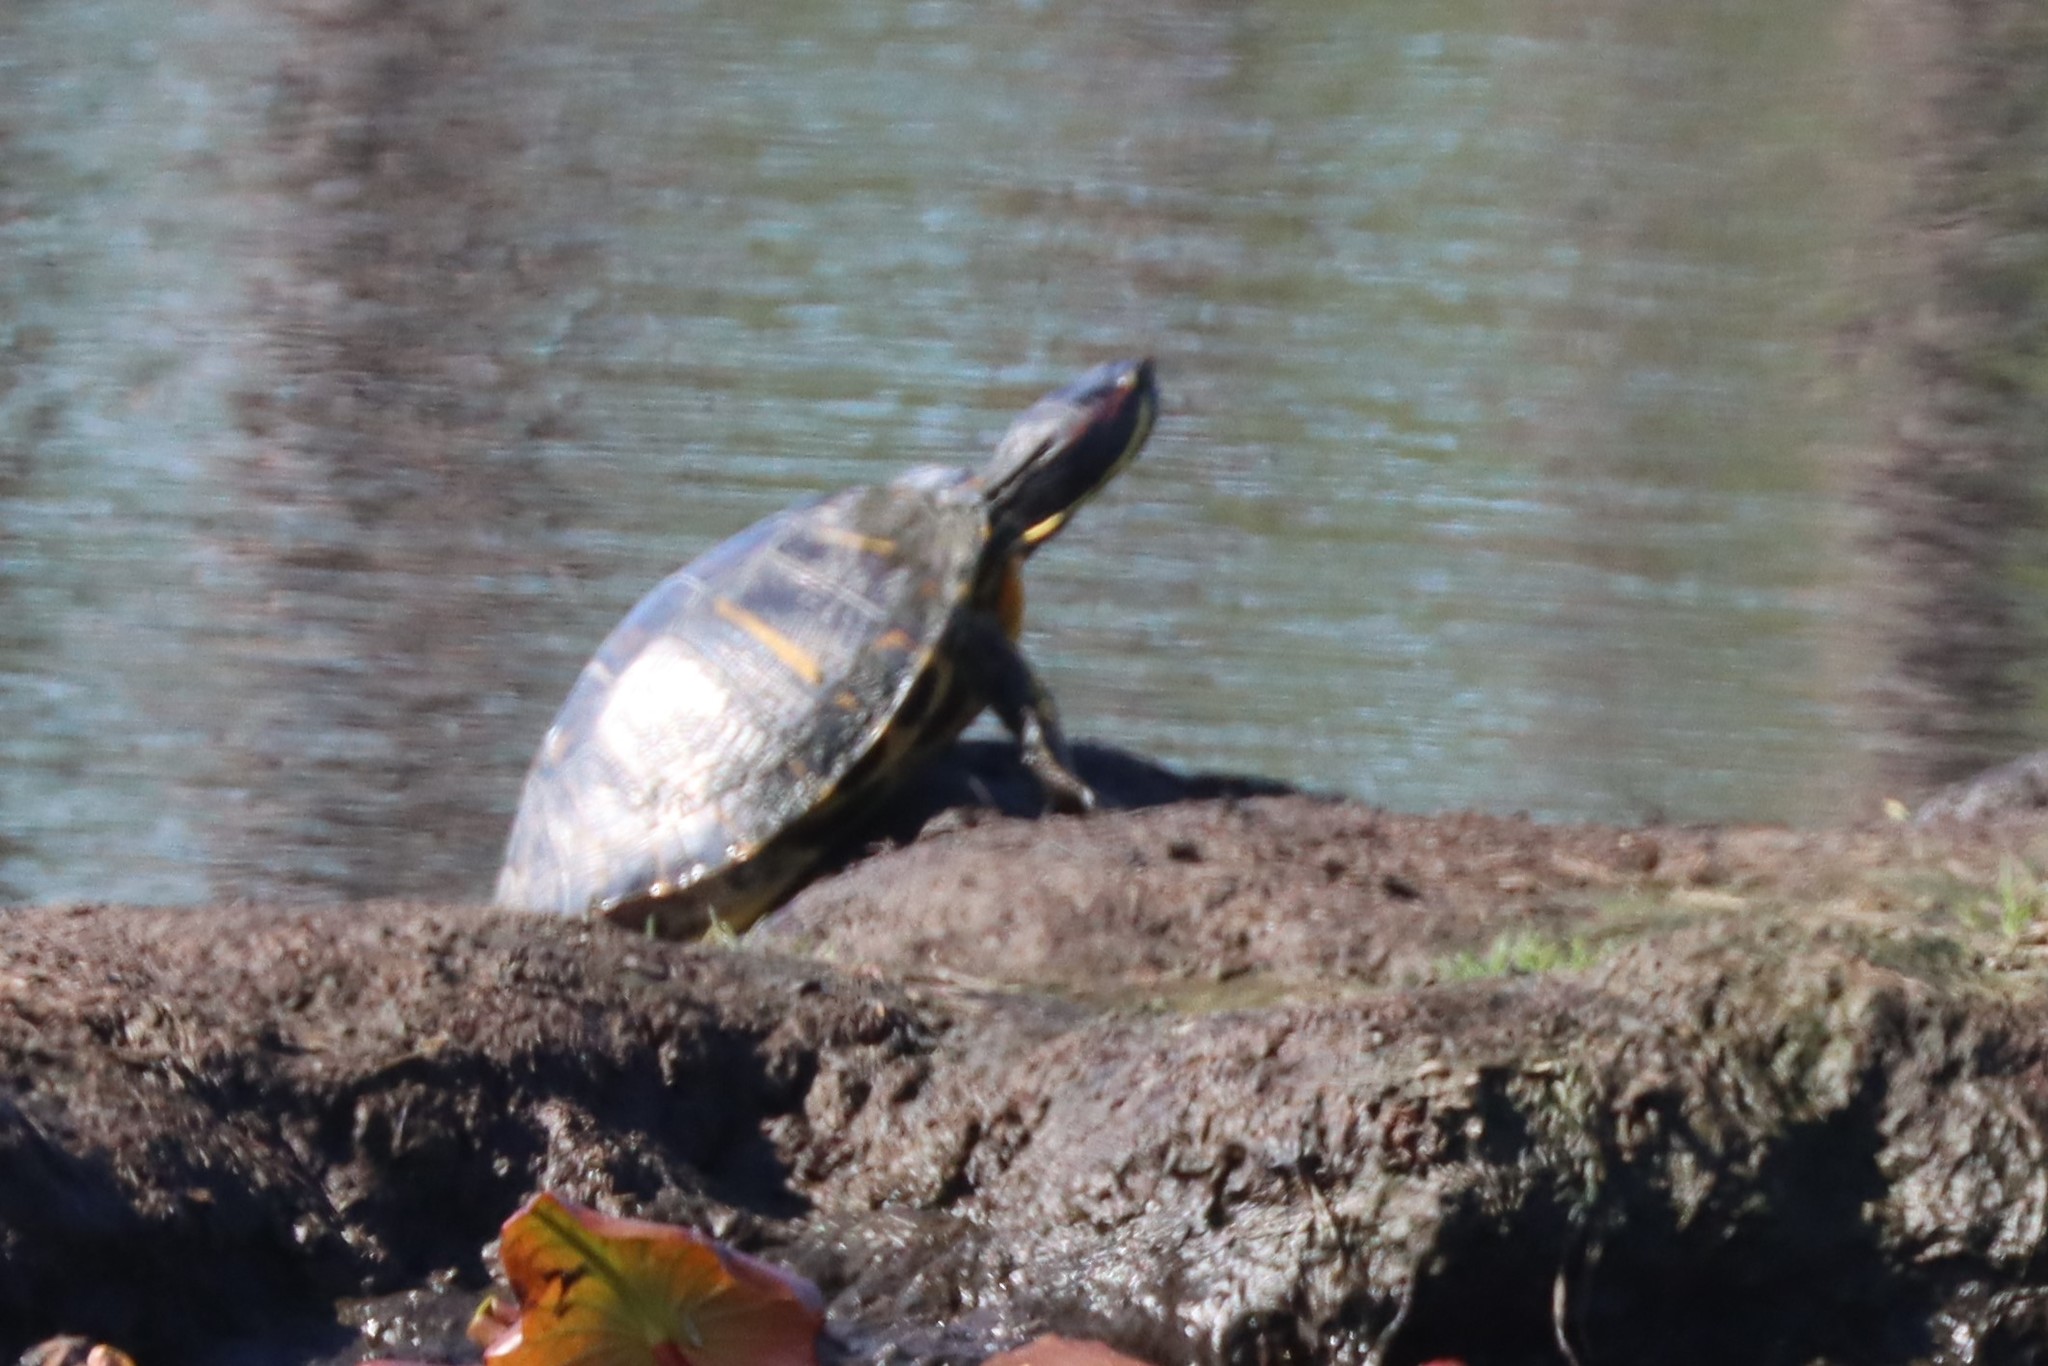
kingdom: Animalia
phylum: Chordata
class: Testudines
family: Emydidae
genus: Trachemys
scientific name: Trachemys scripta
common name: Slider
